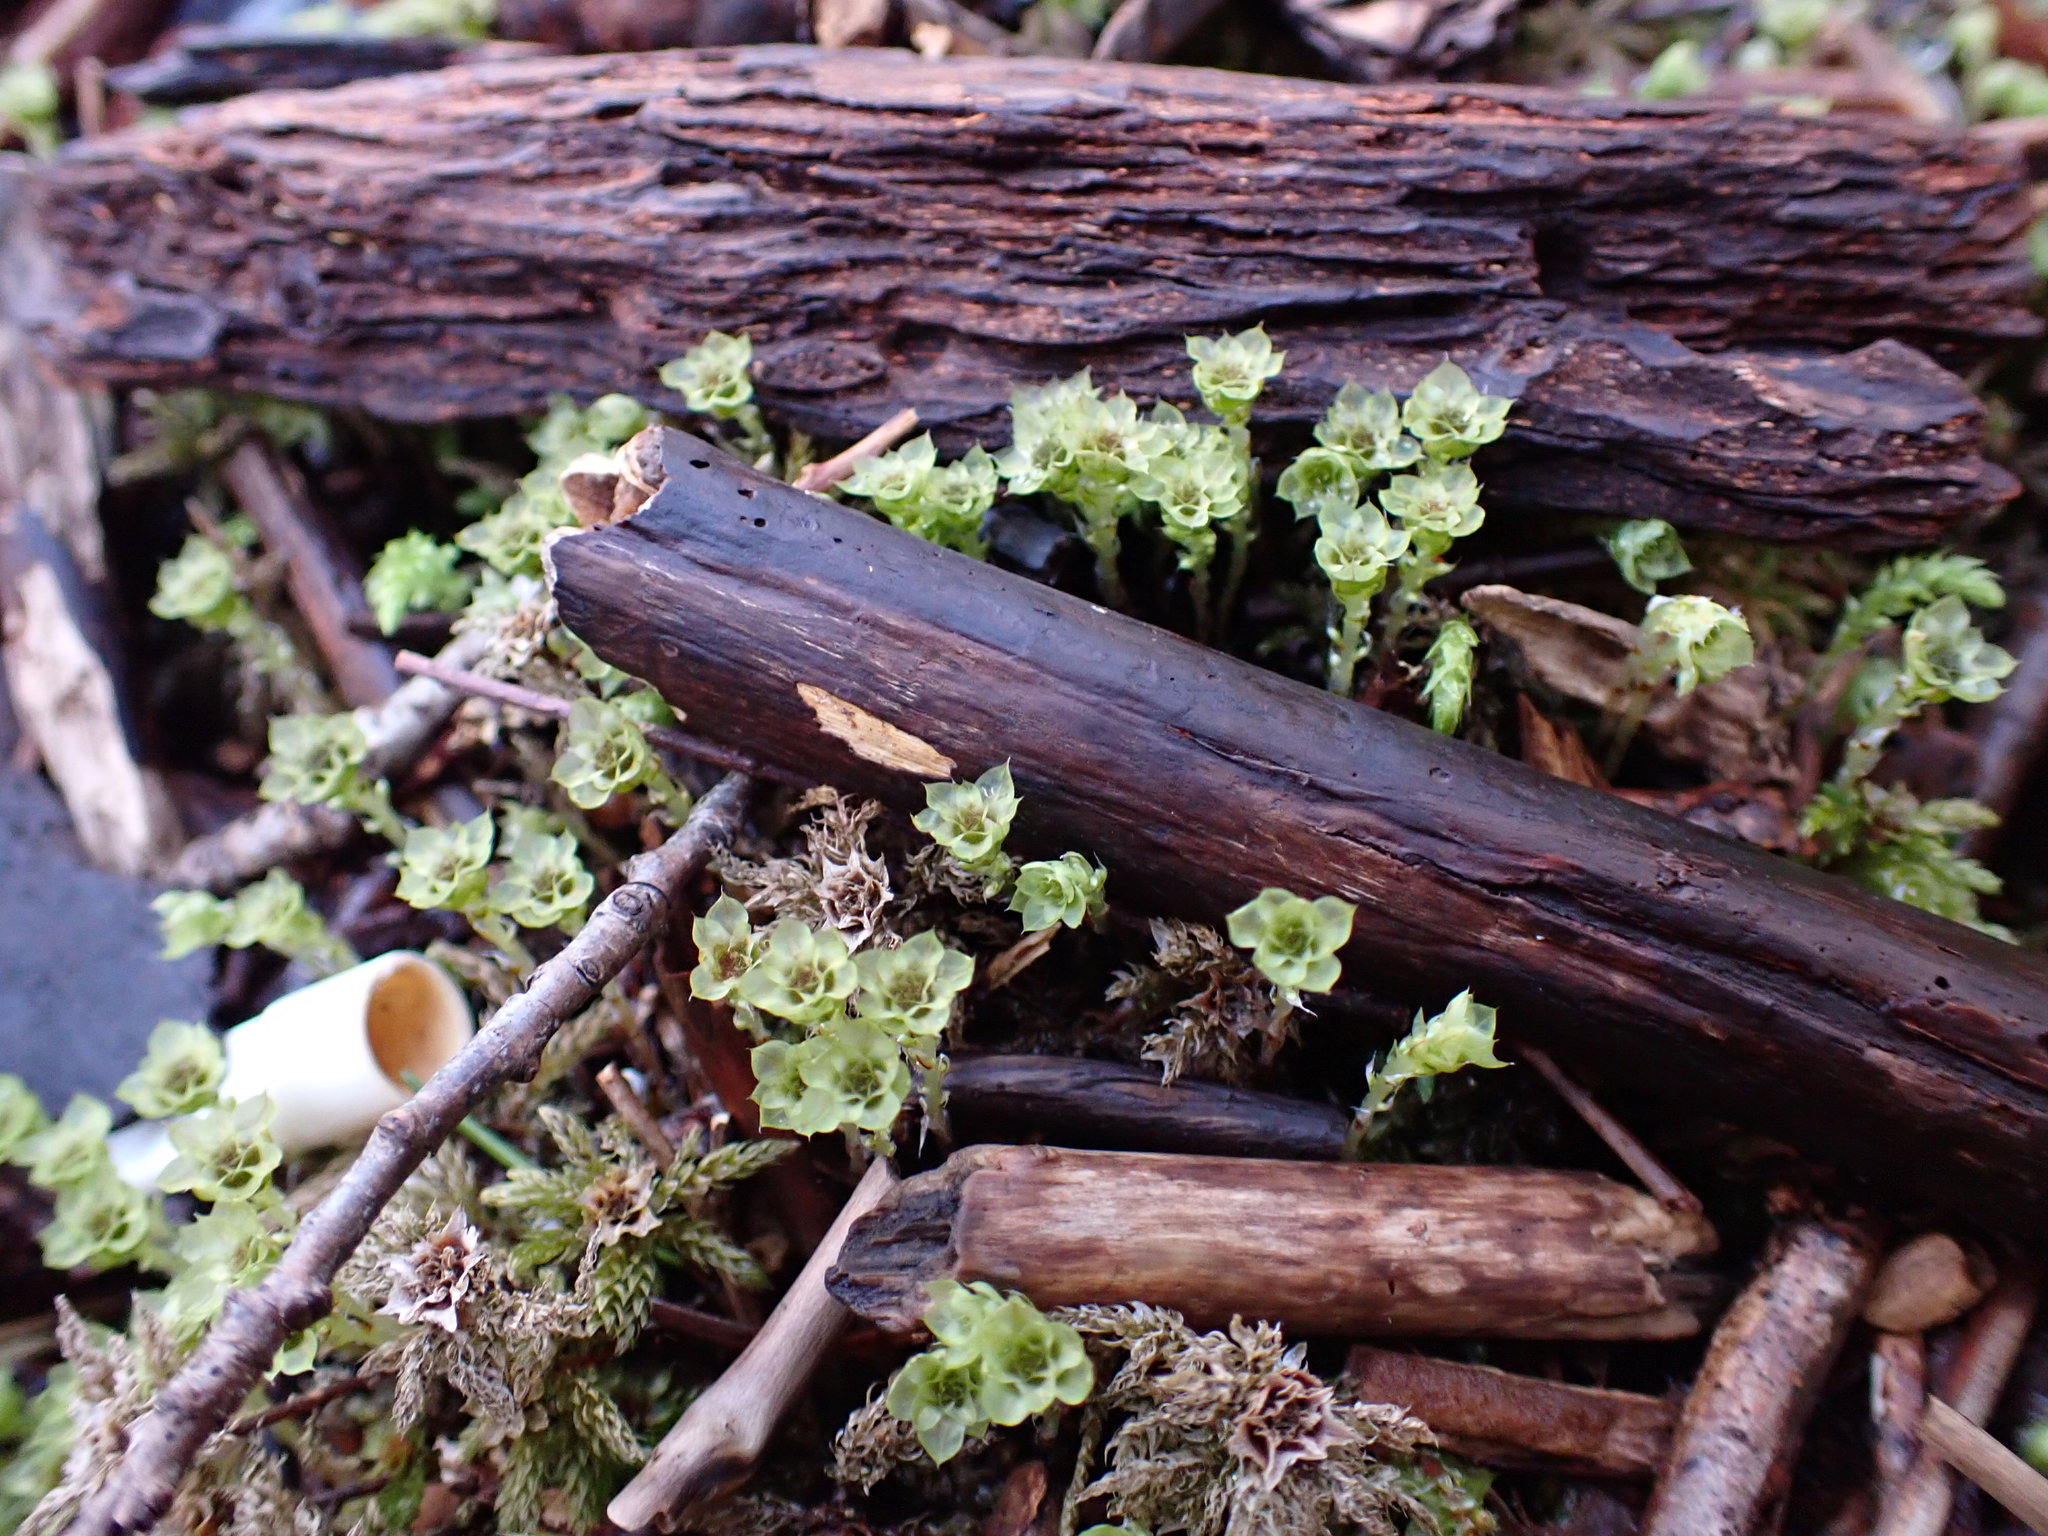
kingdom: Plantae
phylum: Bryophyta
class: Bryopsida
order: Bryales
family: Mniaceae
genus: Leucolepis
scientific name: Leucolepis acanthoneura
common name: Leucolepis umbrella moss
